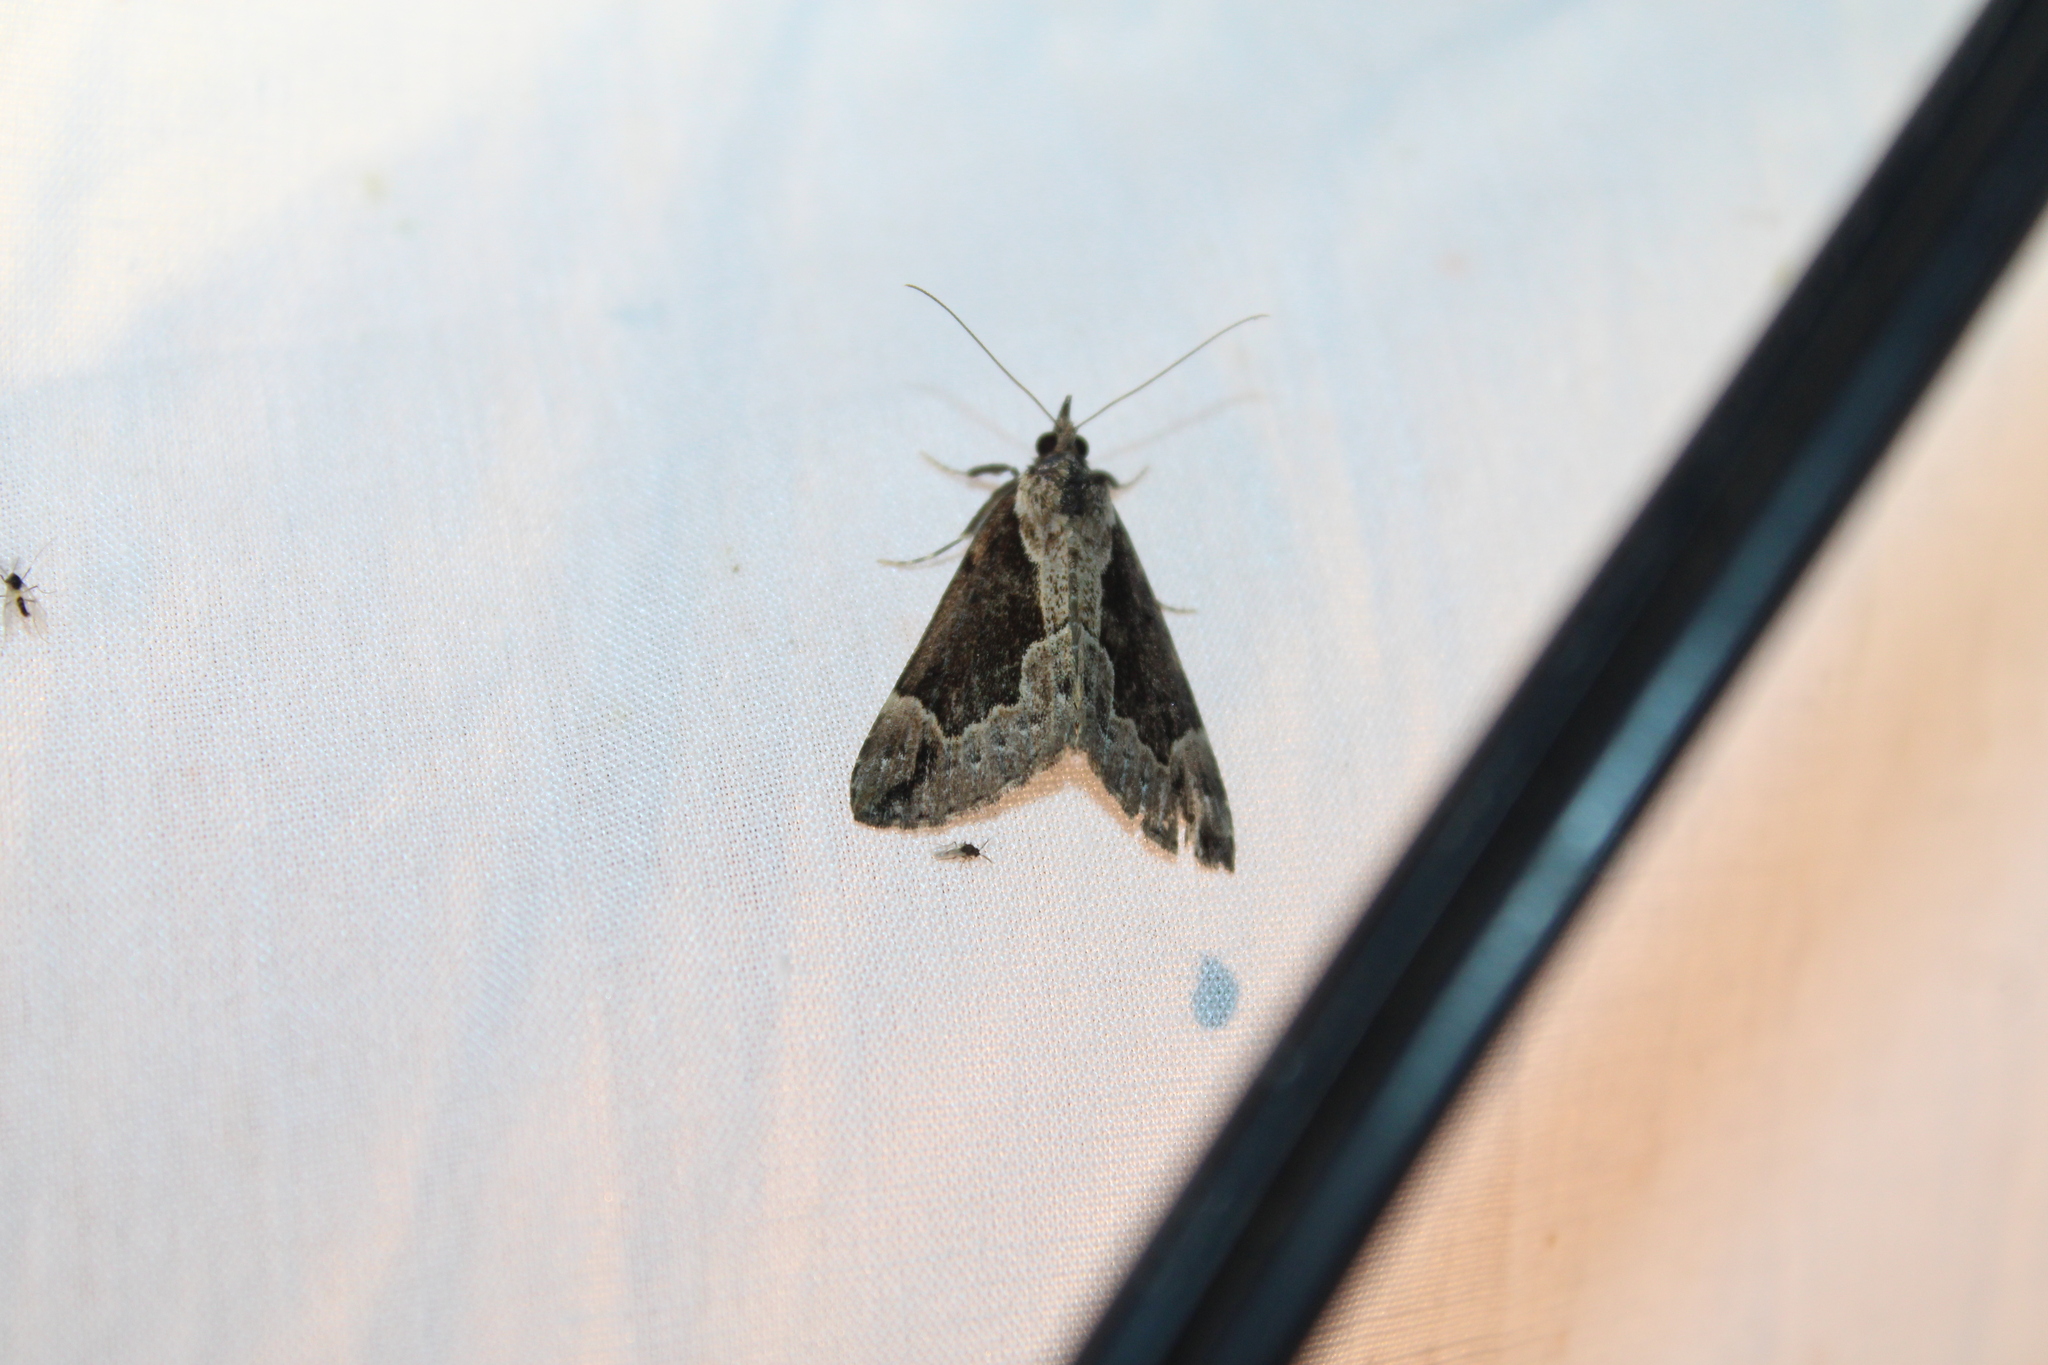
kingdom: Animalia
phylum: Arthropoda
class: Insecta
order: Lepidoptera
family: Erebidae
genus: Hypena
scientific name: Hypena baltimoralis
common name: Baltimore snout
